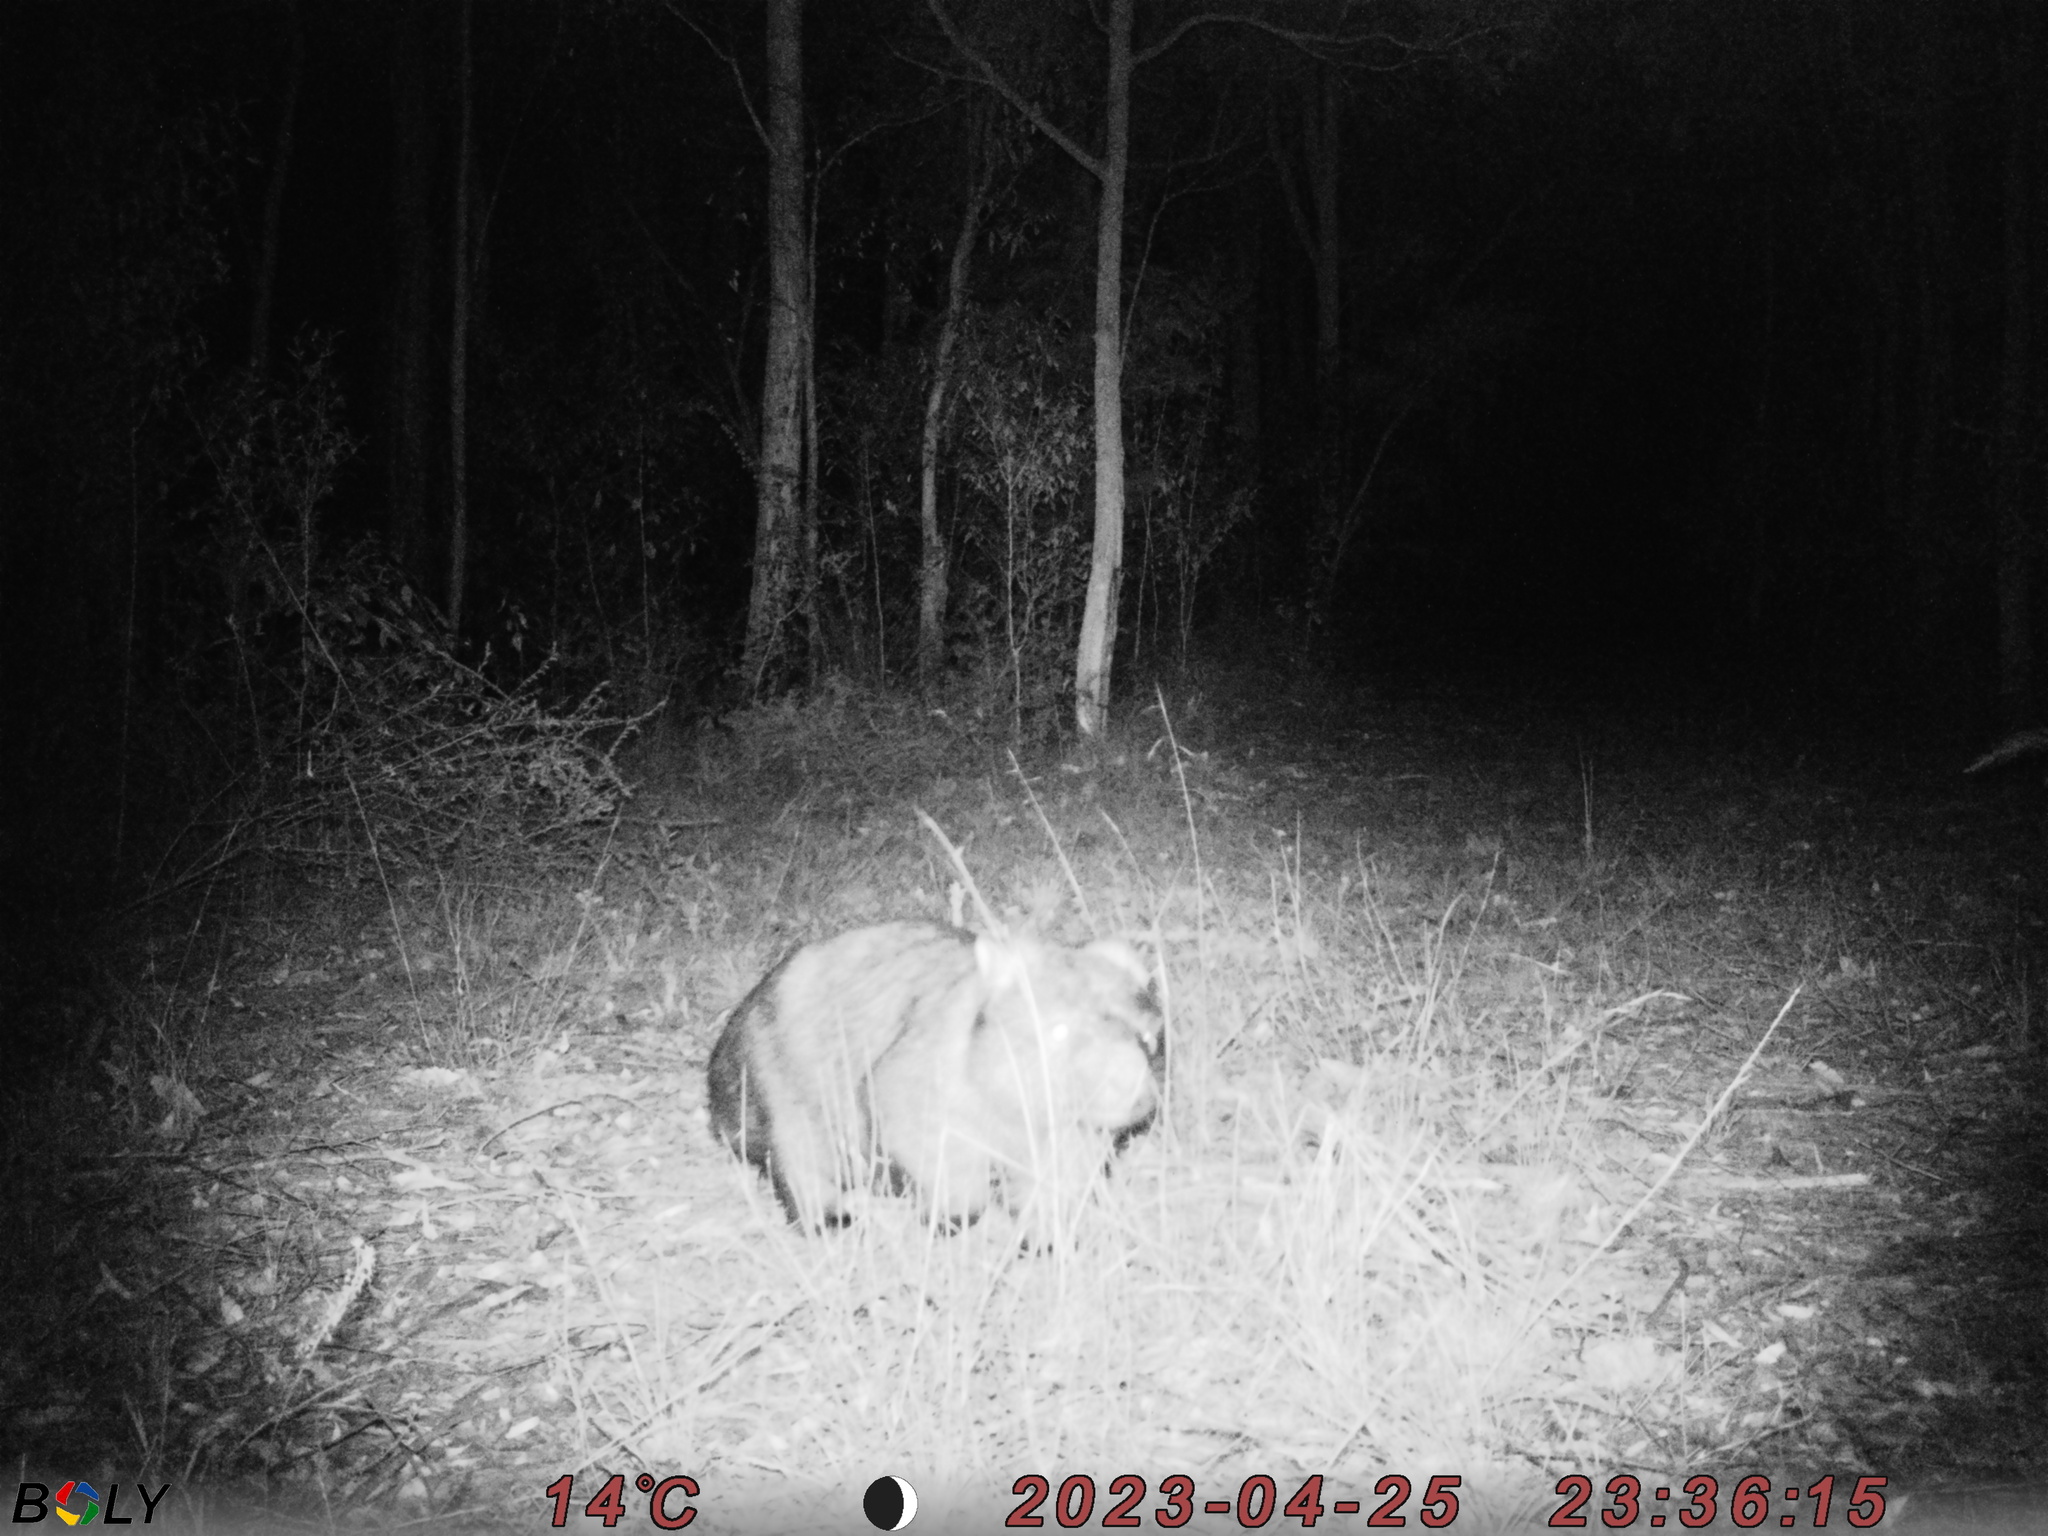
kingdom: Animalia
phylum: Chordata
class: Mammalia
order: Diprotodontia
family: Vombatidae
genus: Vombatus
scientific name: Vombatus ursinus
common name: Common wombat
